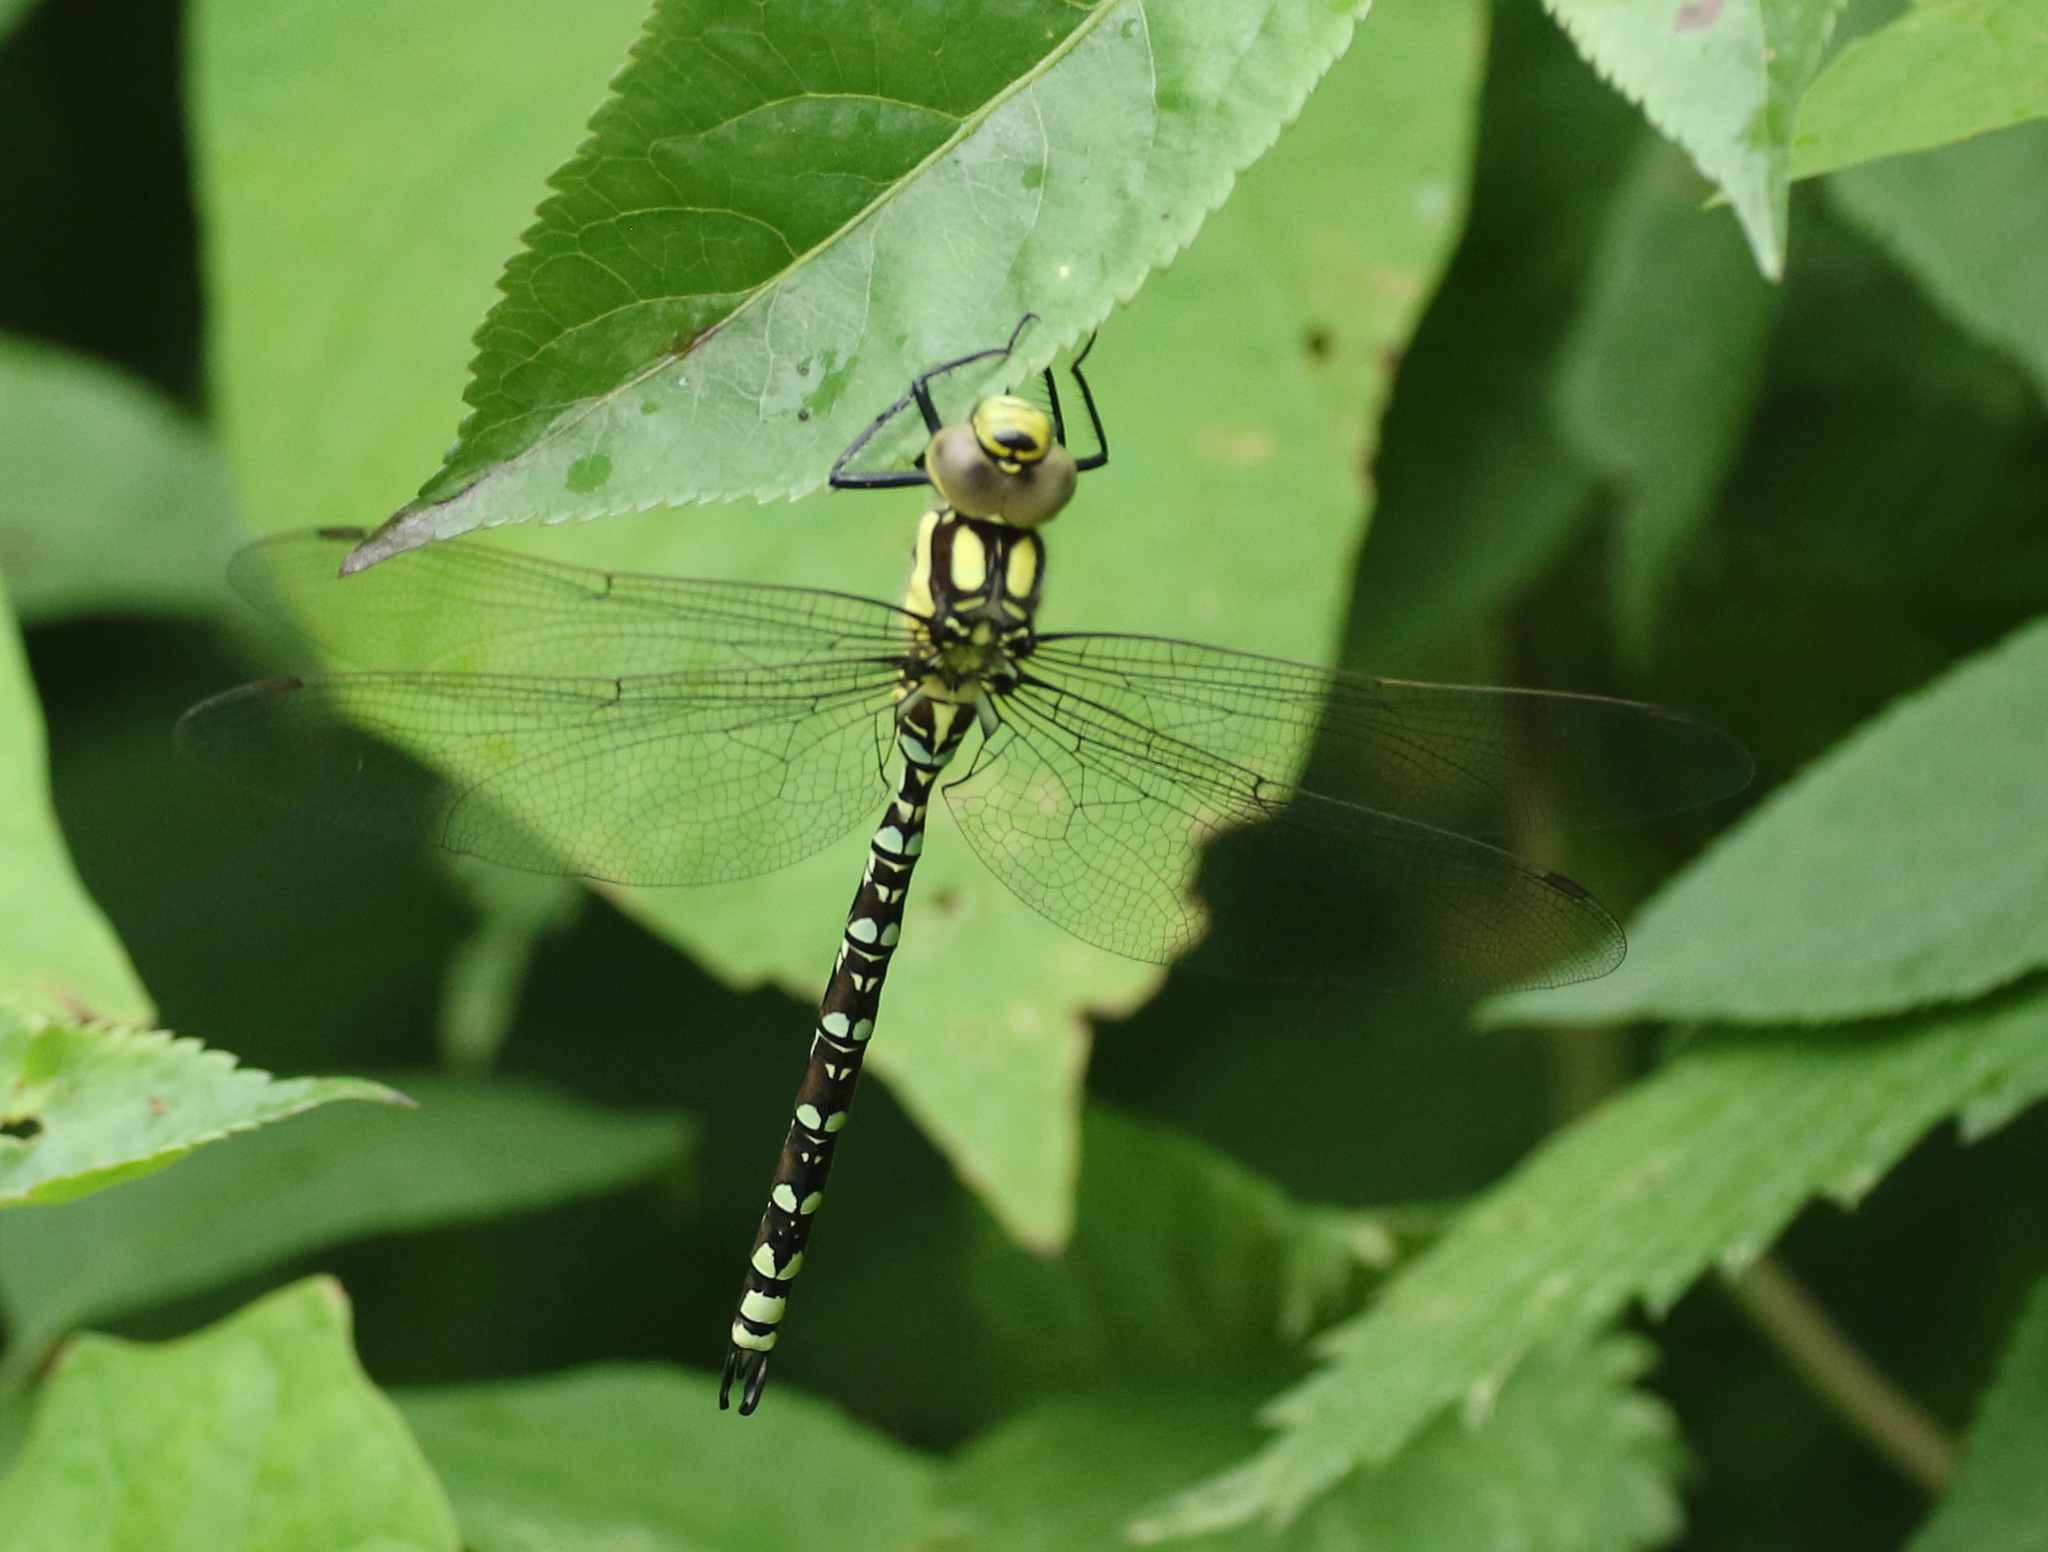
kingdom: Animalia
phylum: Arthropoda
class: Insecta
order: Odonata
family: Aeshnidae
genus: Aeshna
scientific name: Aeshna cyanea
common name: Southern hawker
